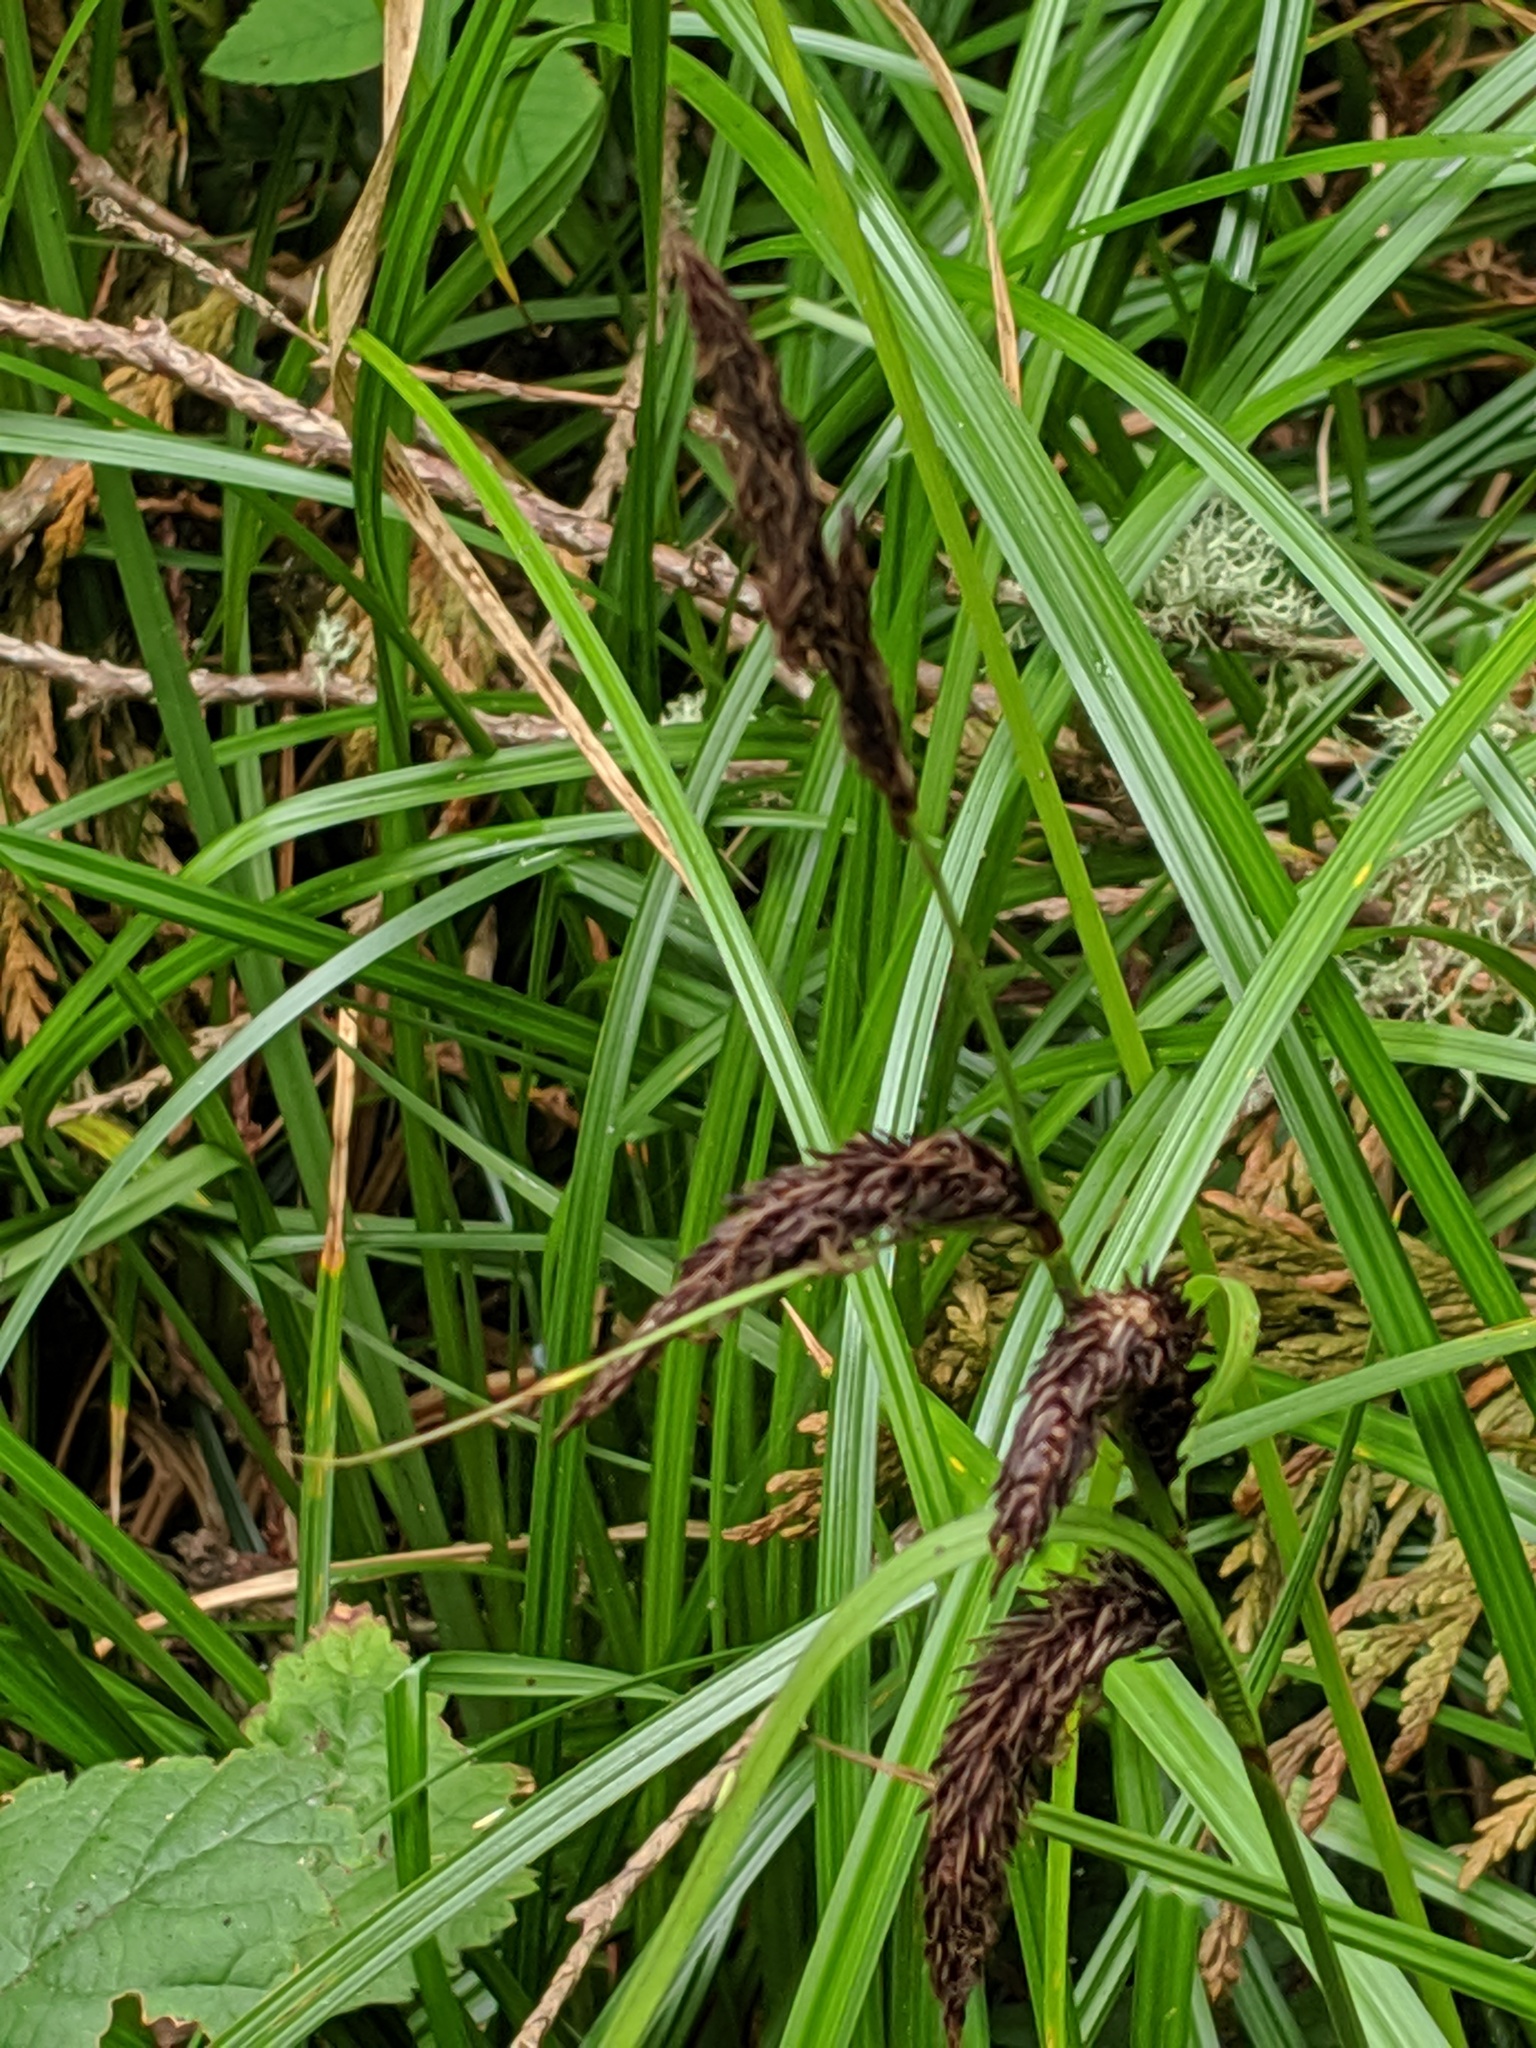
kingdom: Plantae
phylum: Tracheophyta
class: Liliopsida
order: Poales
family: Cyperaceae
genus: Carex
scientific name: Carex obnupta
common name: Slough sedge
